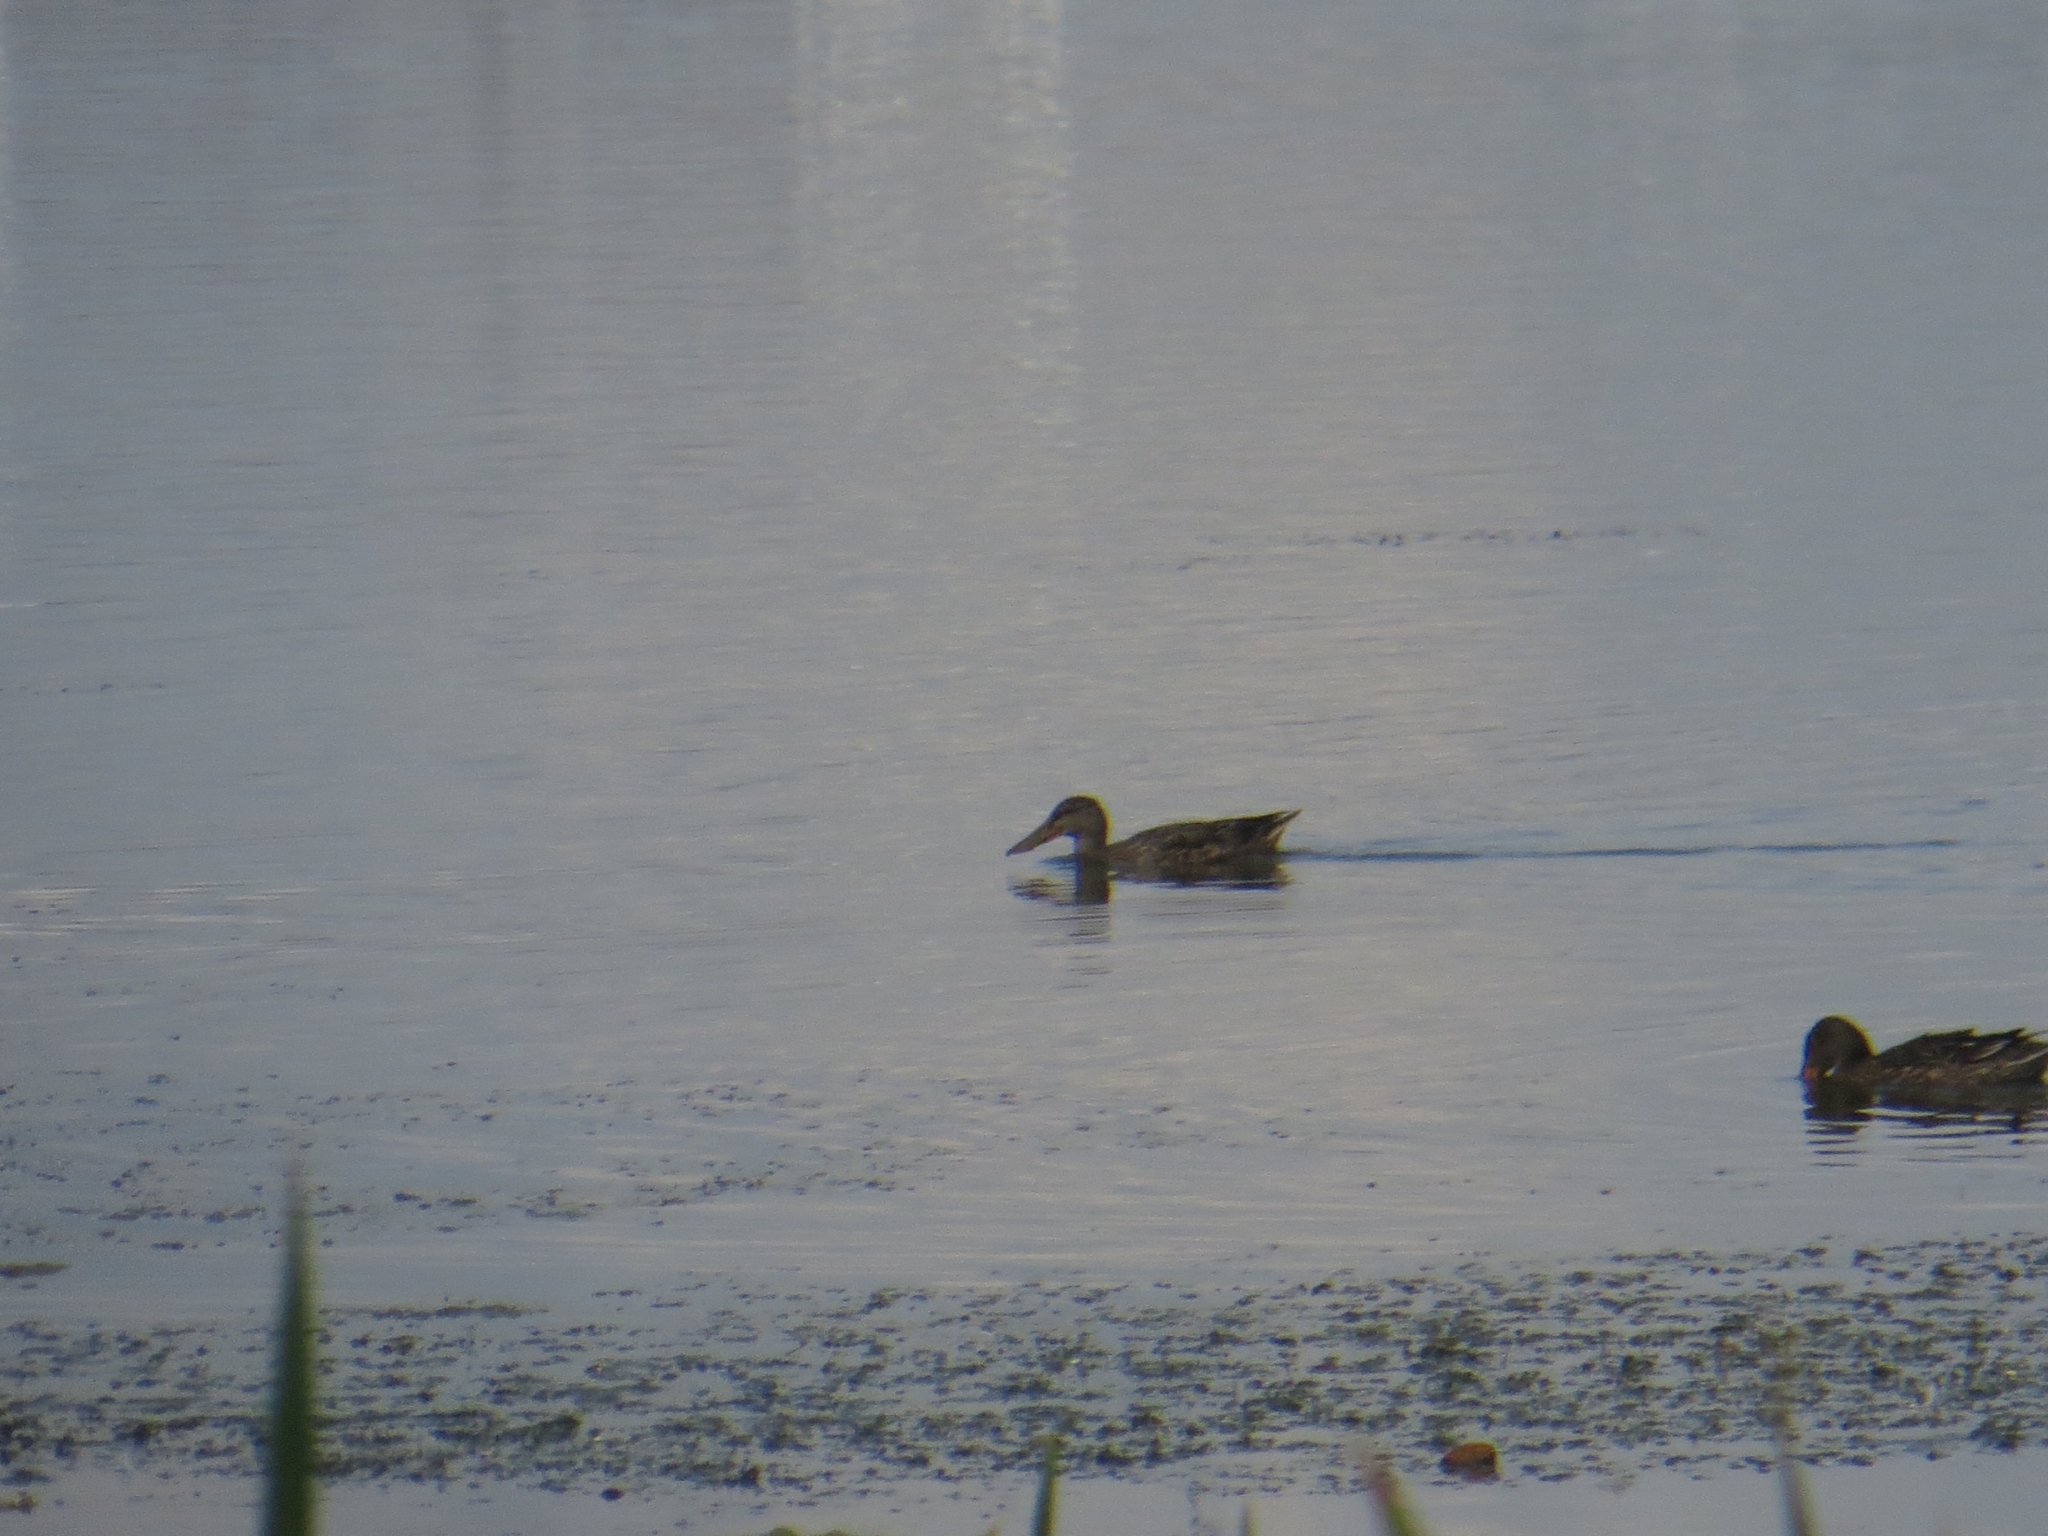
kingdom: Animalia
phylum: Chordata
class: Aves
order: Anseriformes
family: Anatidae
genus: Spatula
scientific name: Spatula clypeata
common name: Northern shoveler
